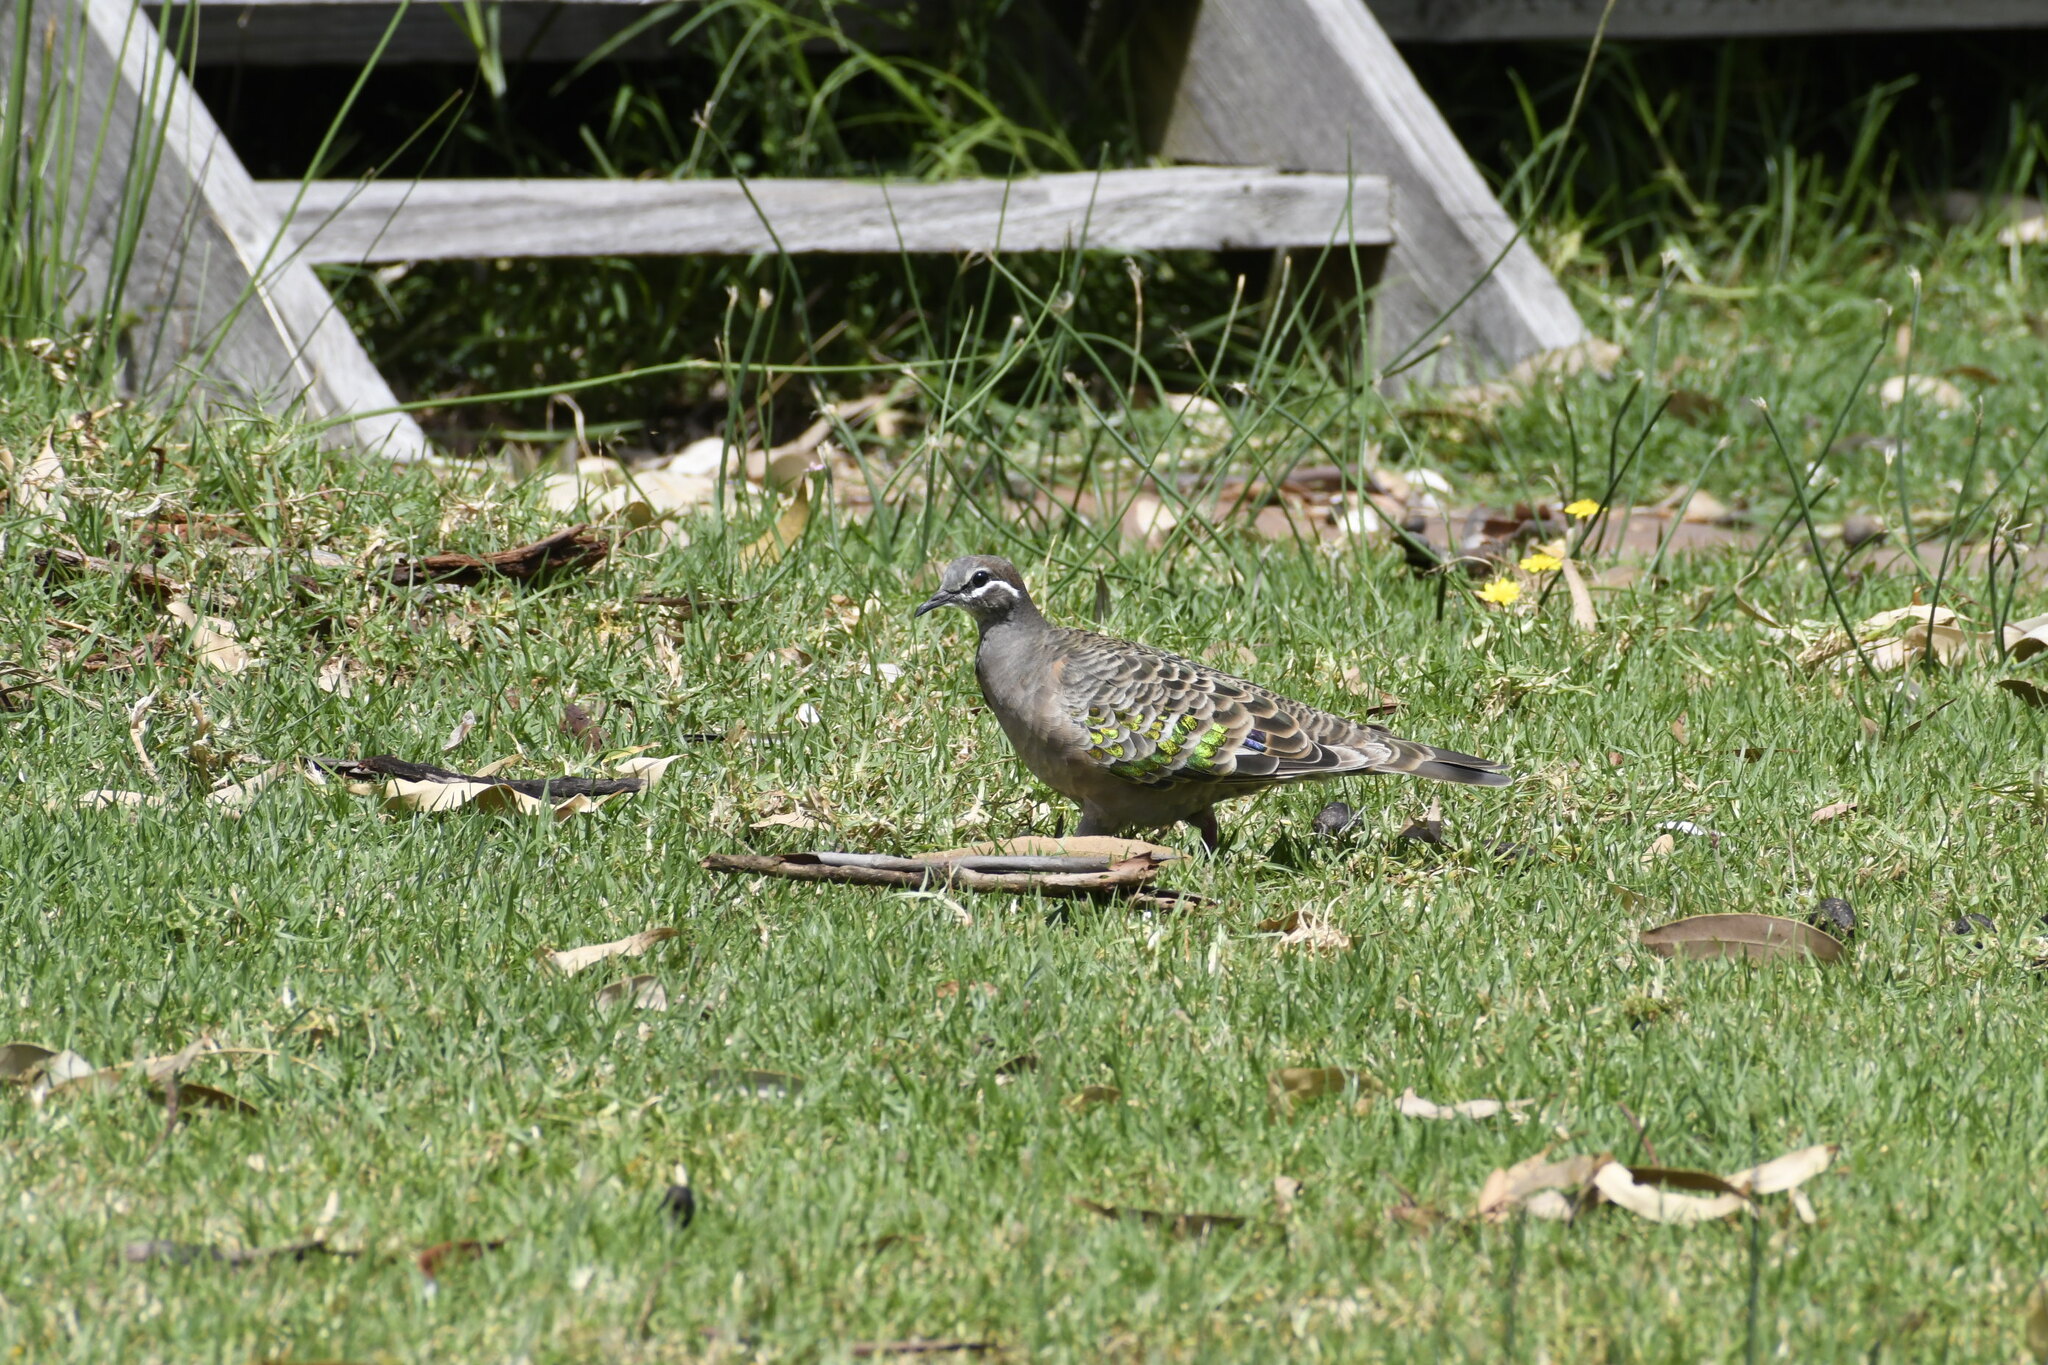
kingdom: Animalia
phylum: Chordata
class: Aves
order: Columbiformes
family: Columbidae
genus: Phaps
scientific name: Phaps chalcoptera
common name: Common bronzewing
